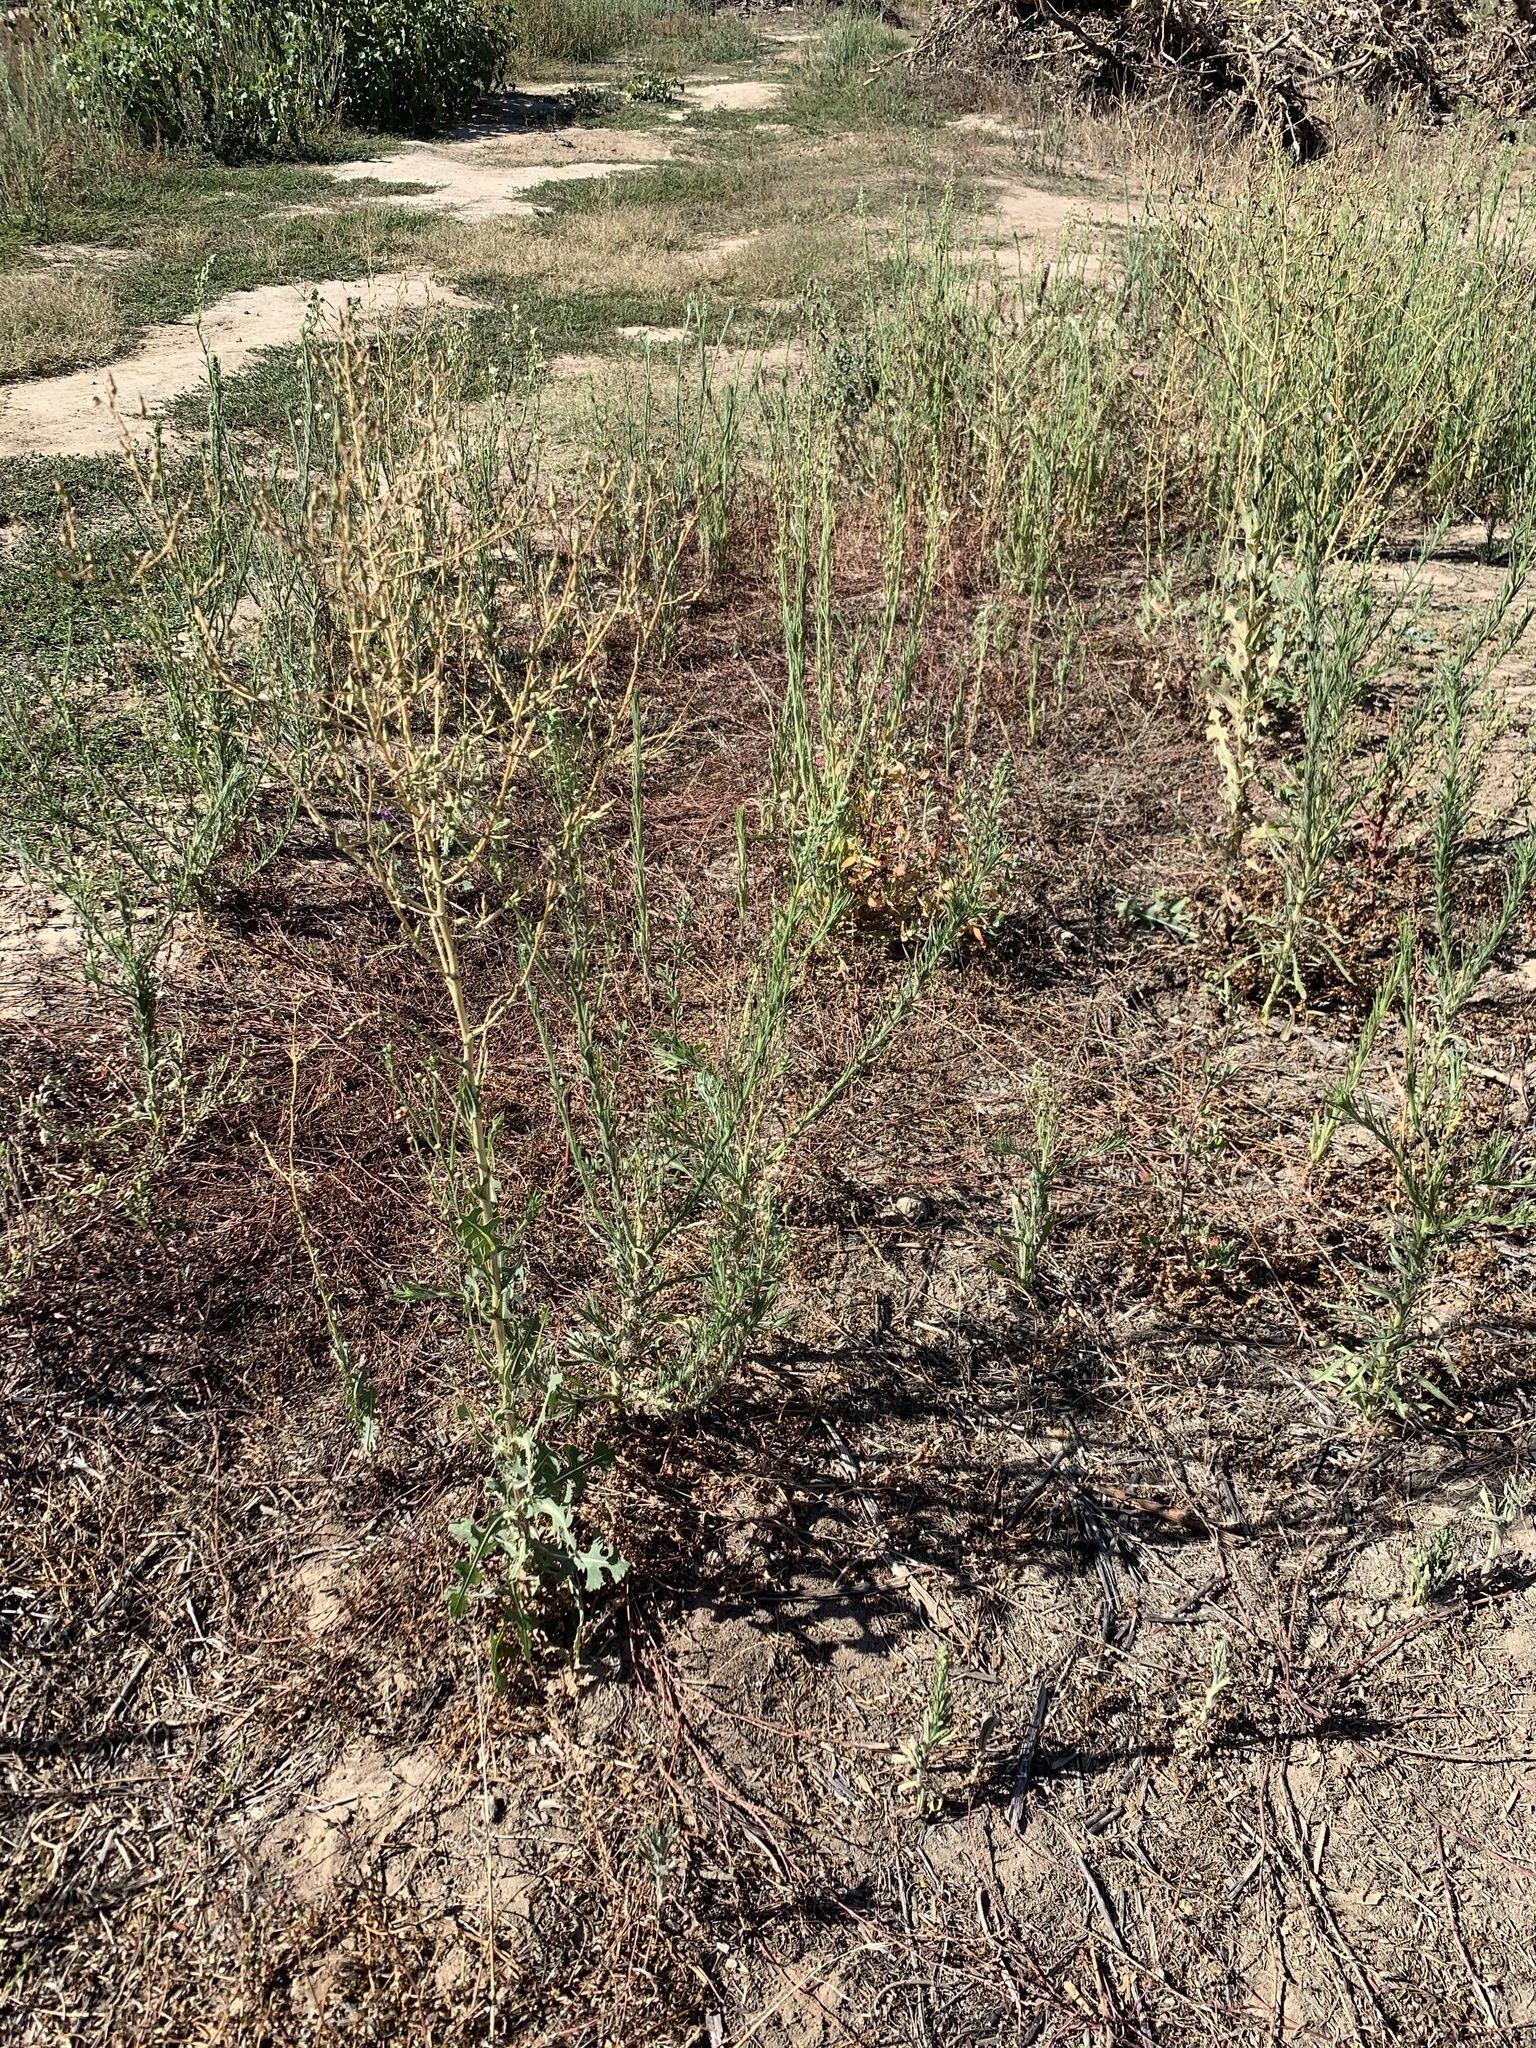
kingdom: Plantae
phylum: Tracheophyta
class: Magnoliopsida
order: Asterales
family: Asteraceae
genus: Lactuca
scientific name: Lactuca serriola
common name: Prickly lettuce
